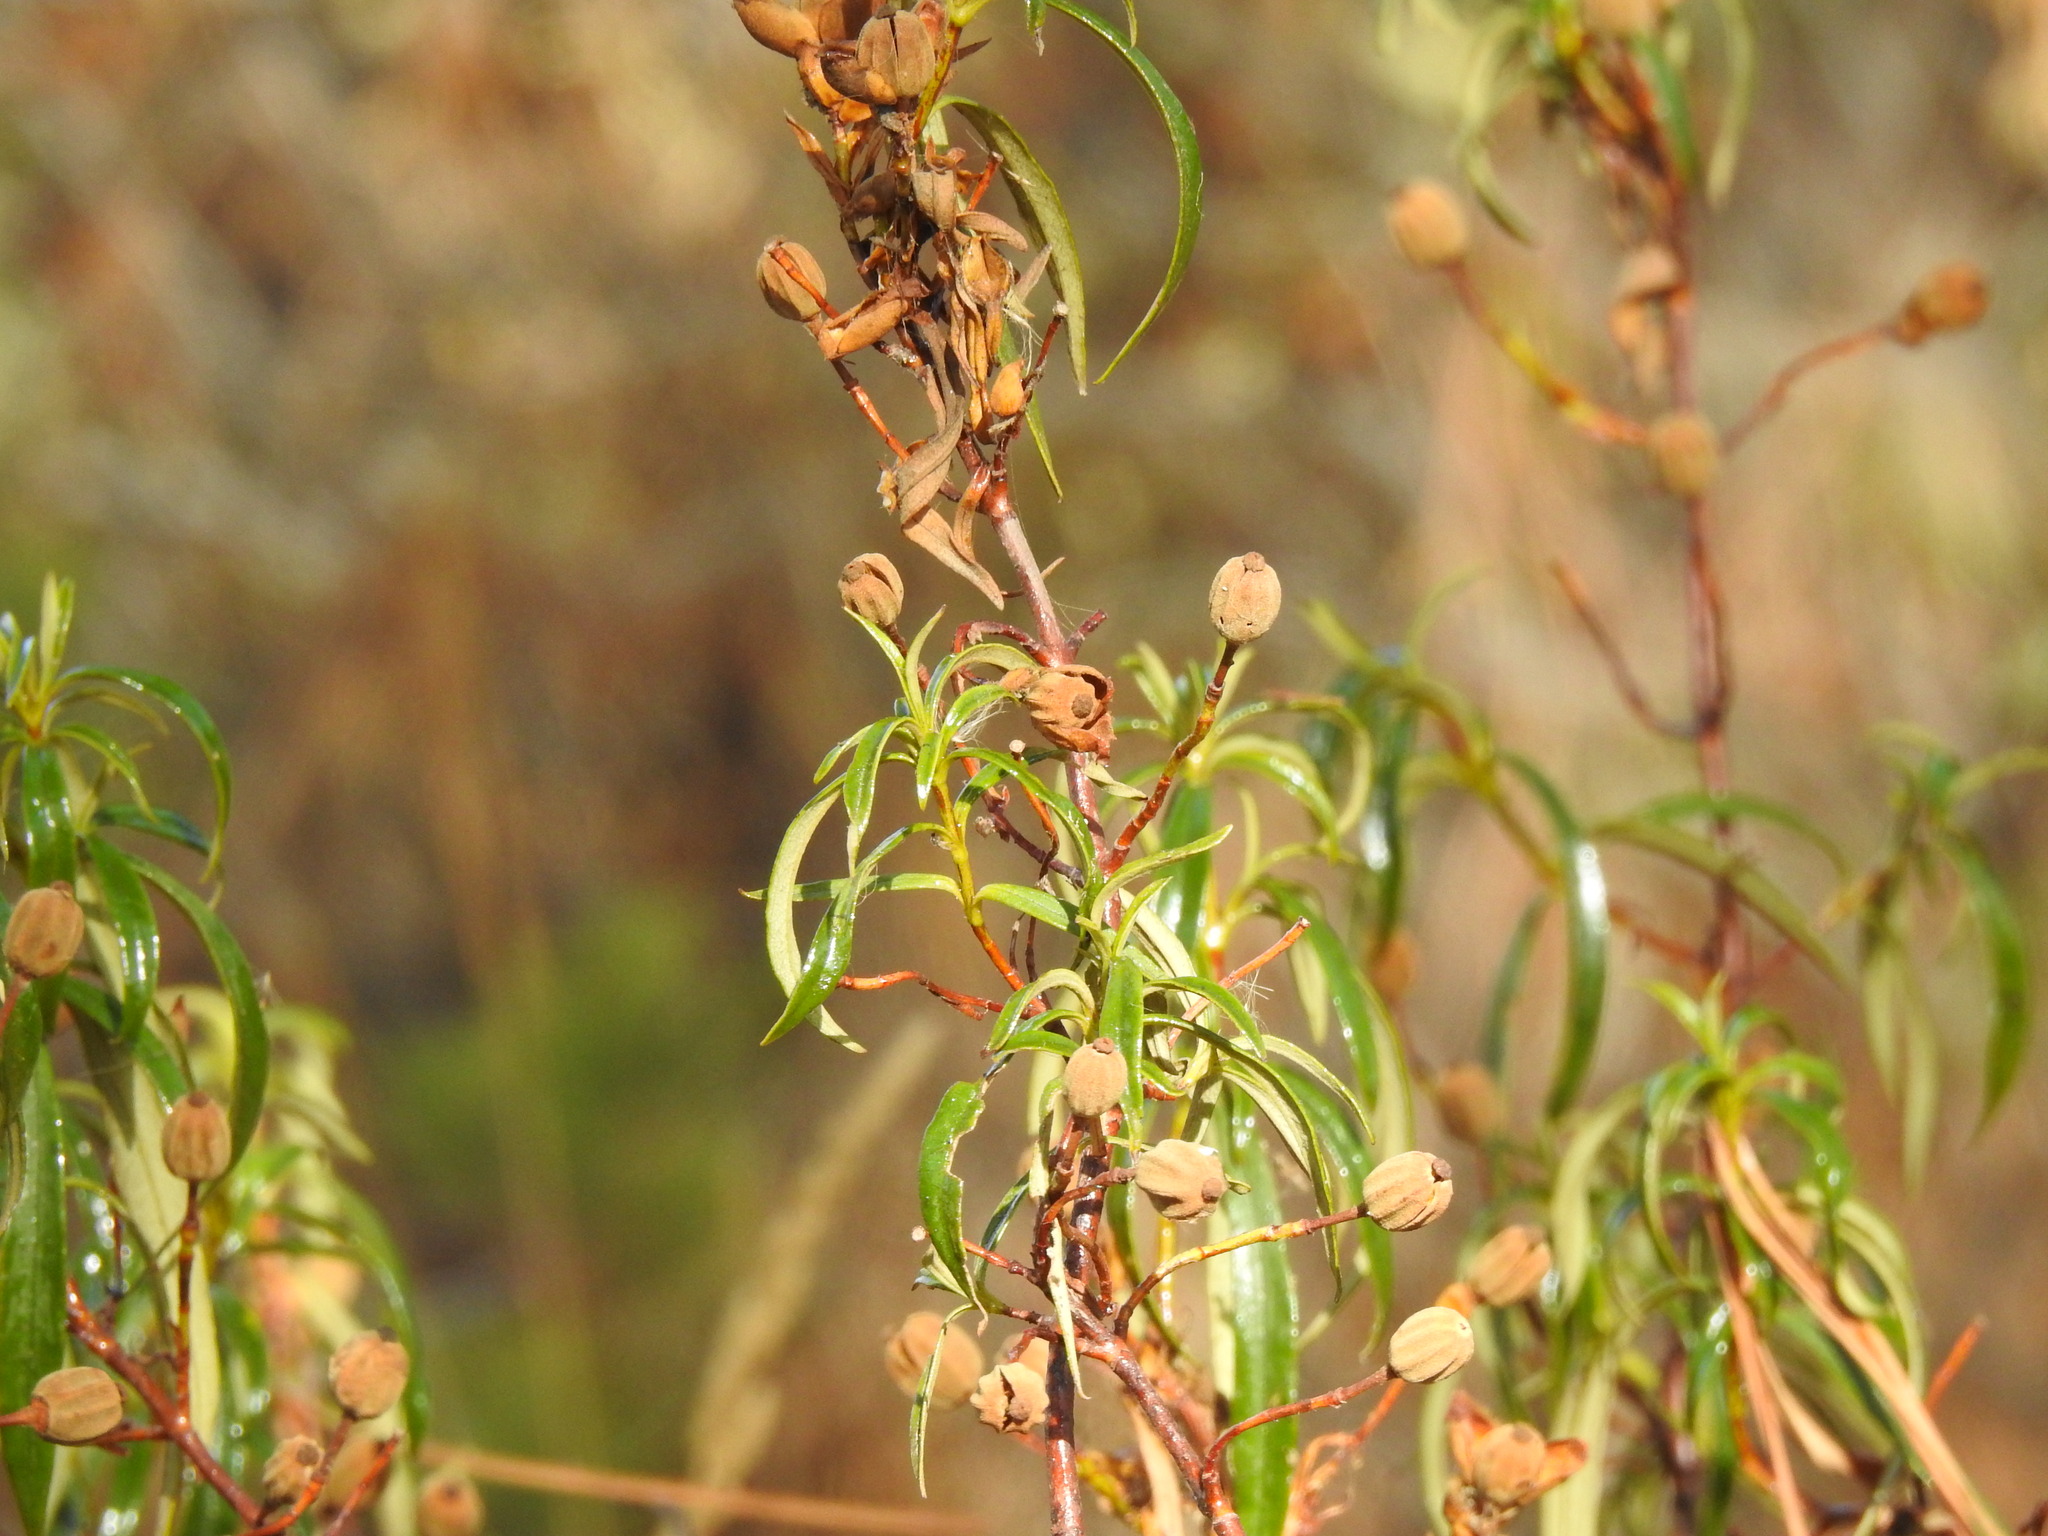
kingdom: Plantae
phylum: Tracheophyta
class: Magnoliopsida
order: Malvales
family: Cistaceae
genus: Cistus
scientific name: Cistus ladanifer
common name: Common gum cistus
